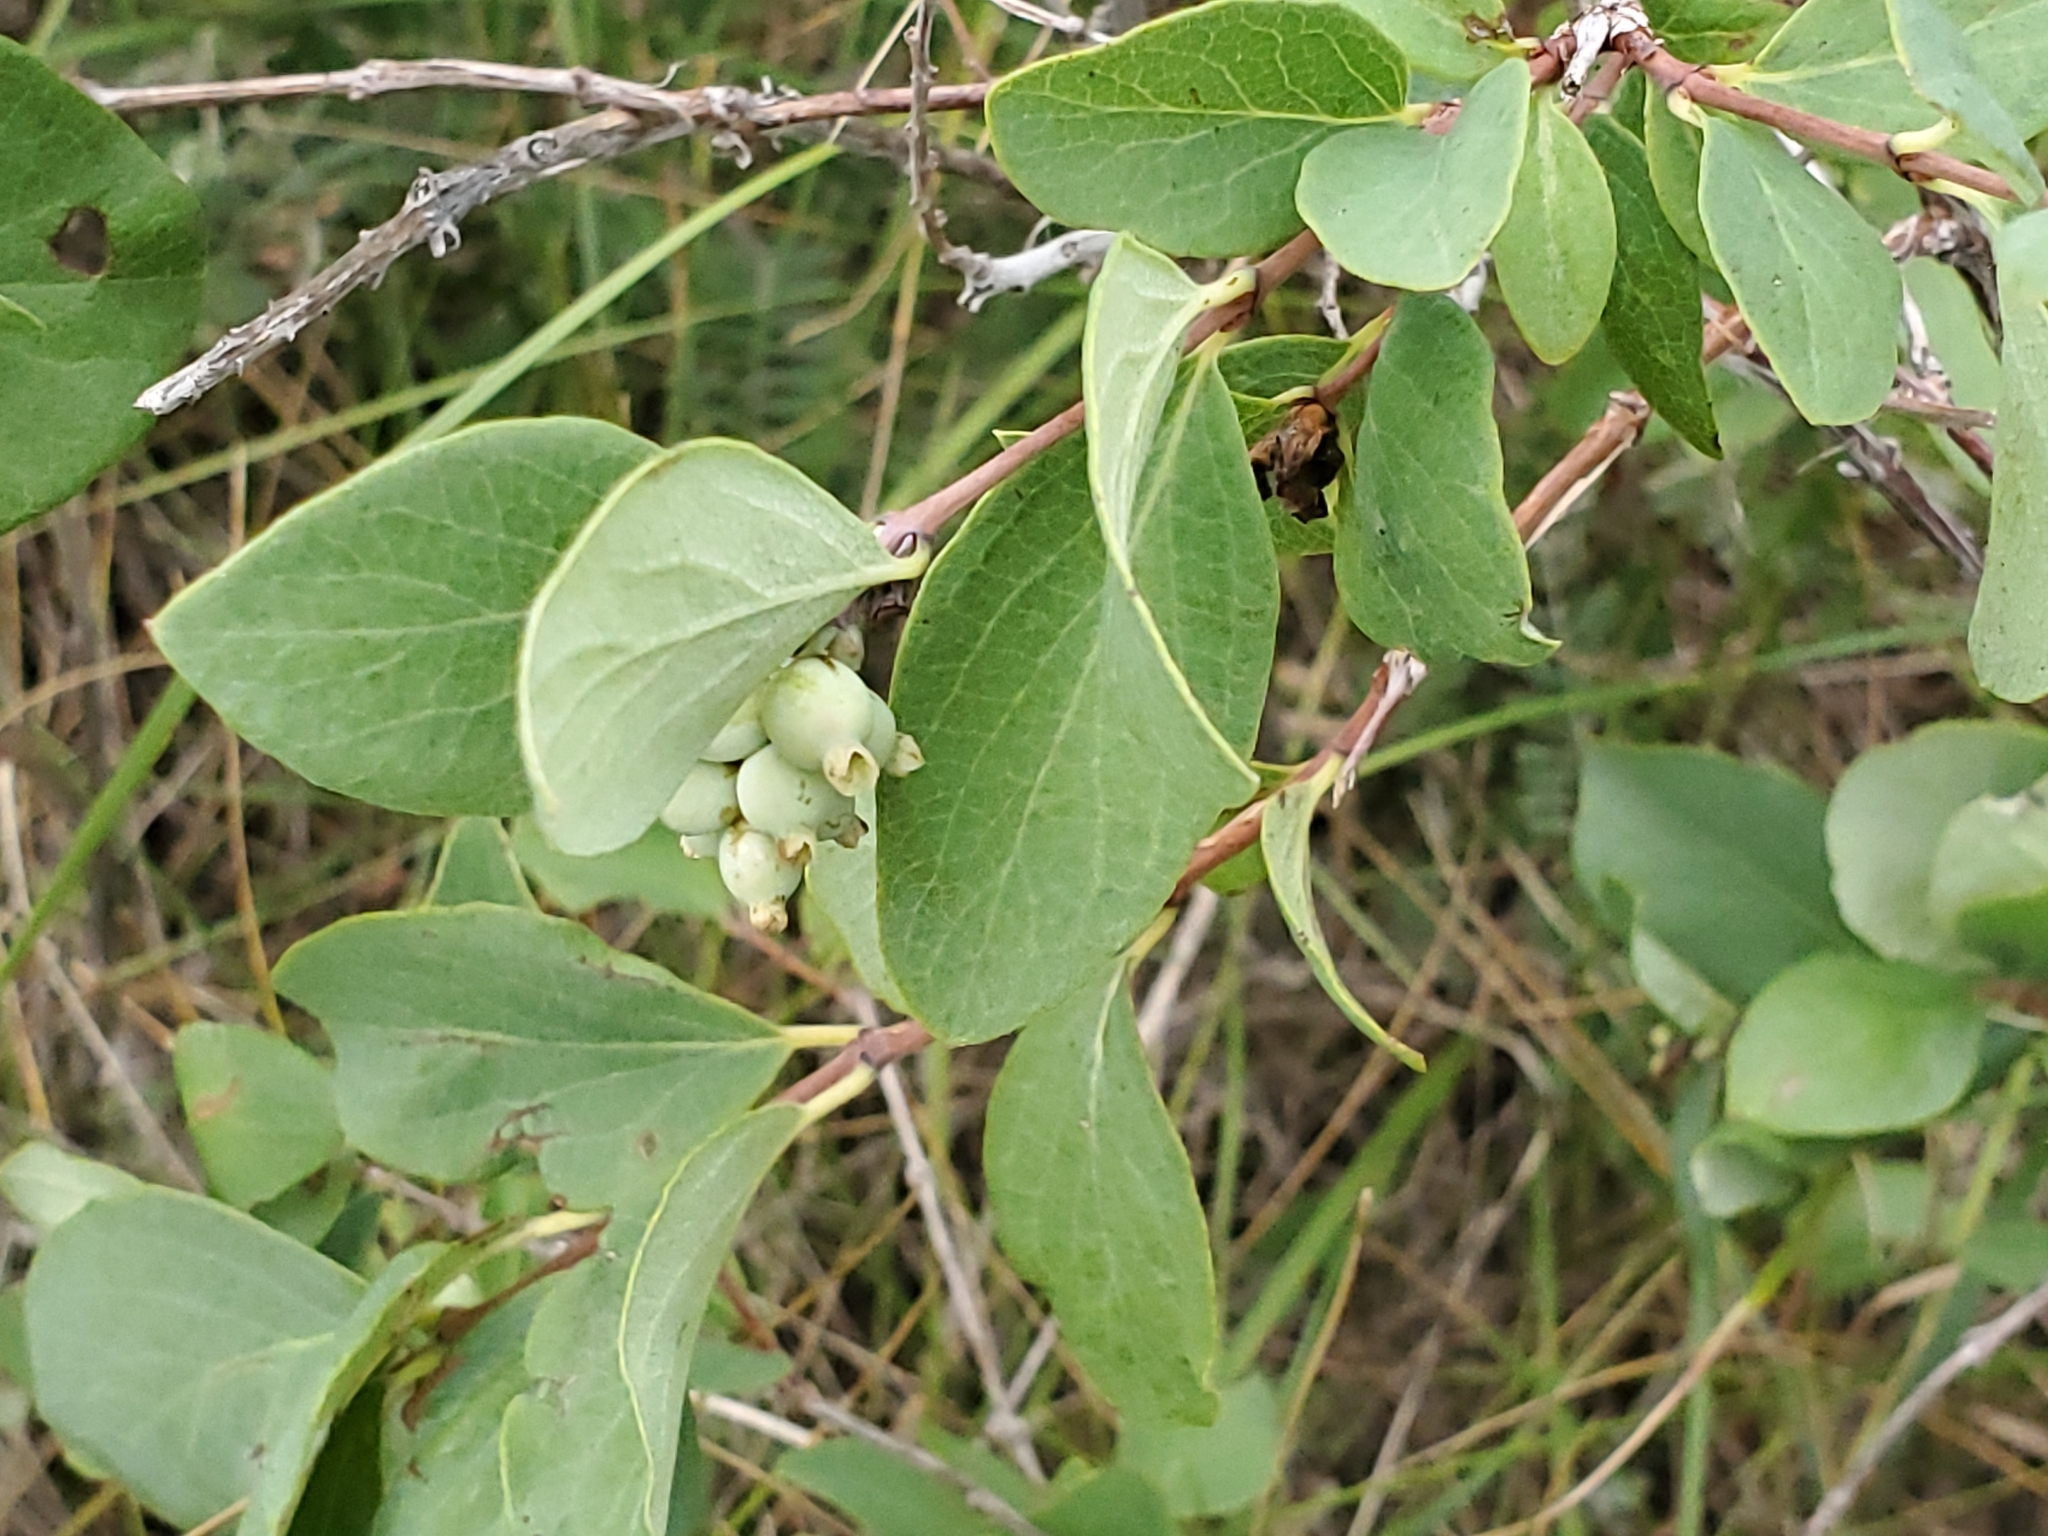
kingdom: Plantae
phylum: Tracheophyta
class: Magnoliopsida
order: Dipsacales
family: Caprifoliaceae
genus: Symphoricarpos
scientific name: Symphoricarpos occidentalis
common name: Wolfberry
